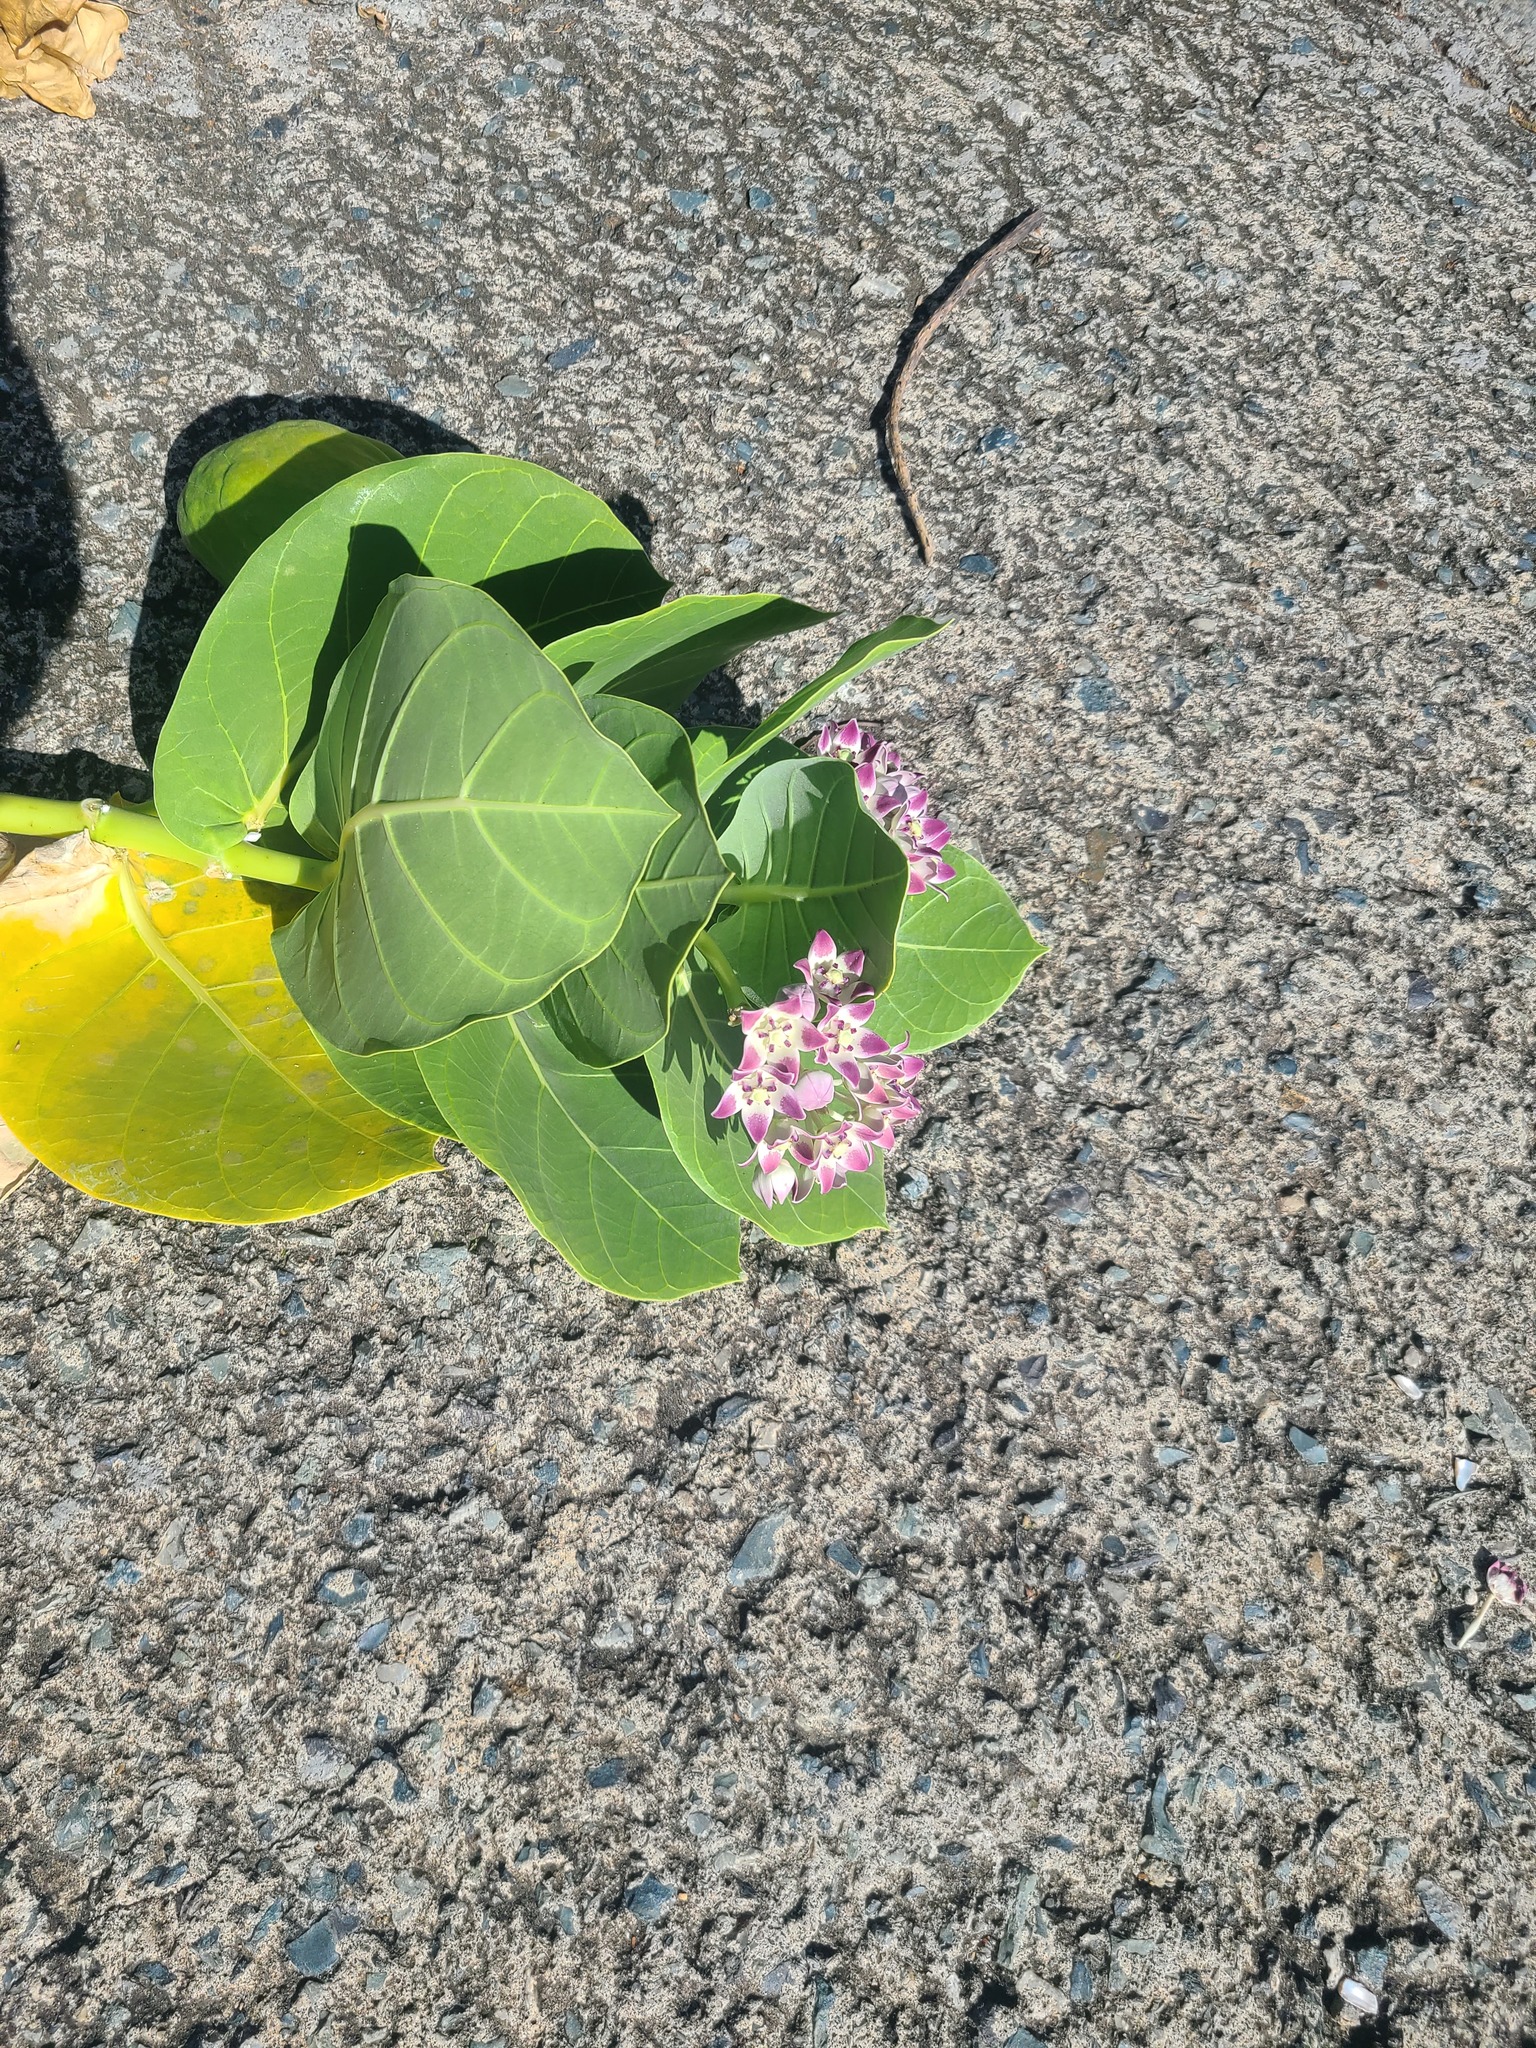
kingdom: Plantae
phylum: Tracheophyta
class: Magnoliopsida
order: Gentianales
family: Apocynaceae
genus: Calotropis
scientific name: Calotropis procera
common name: Roostertree
